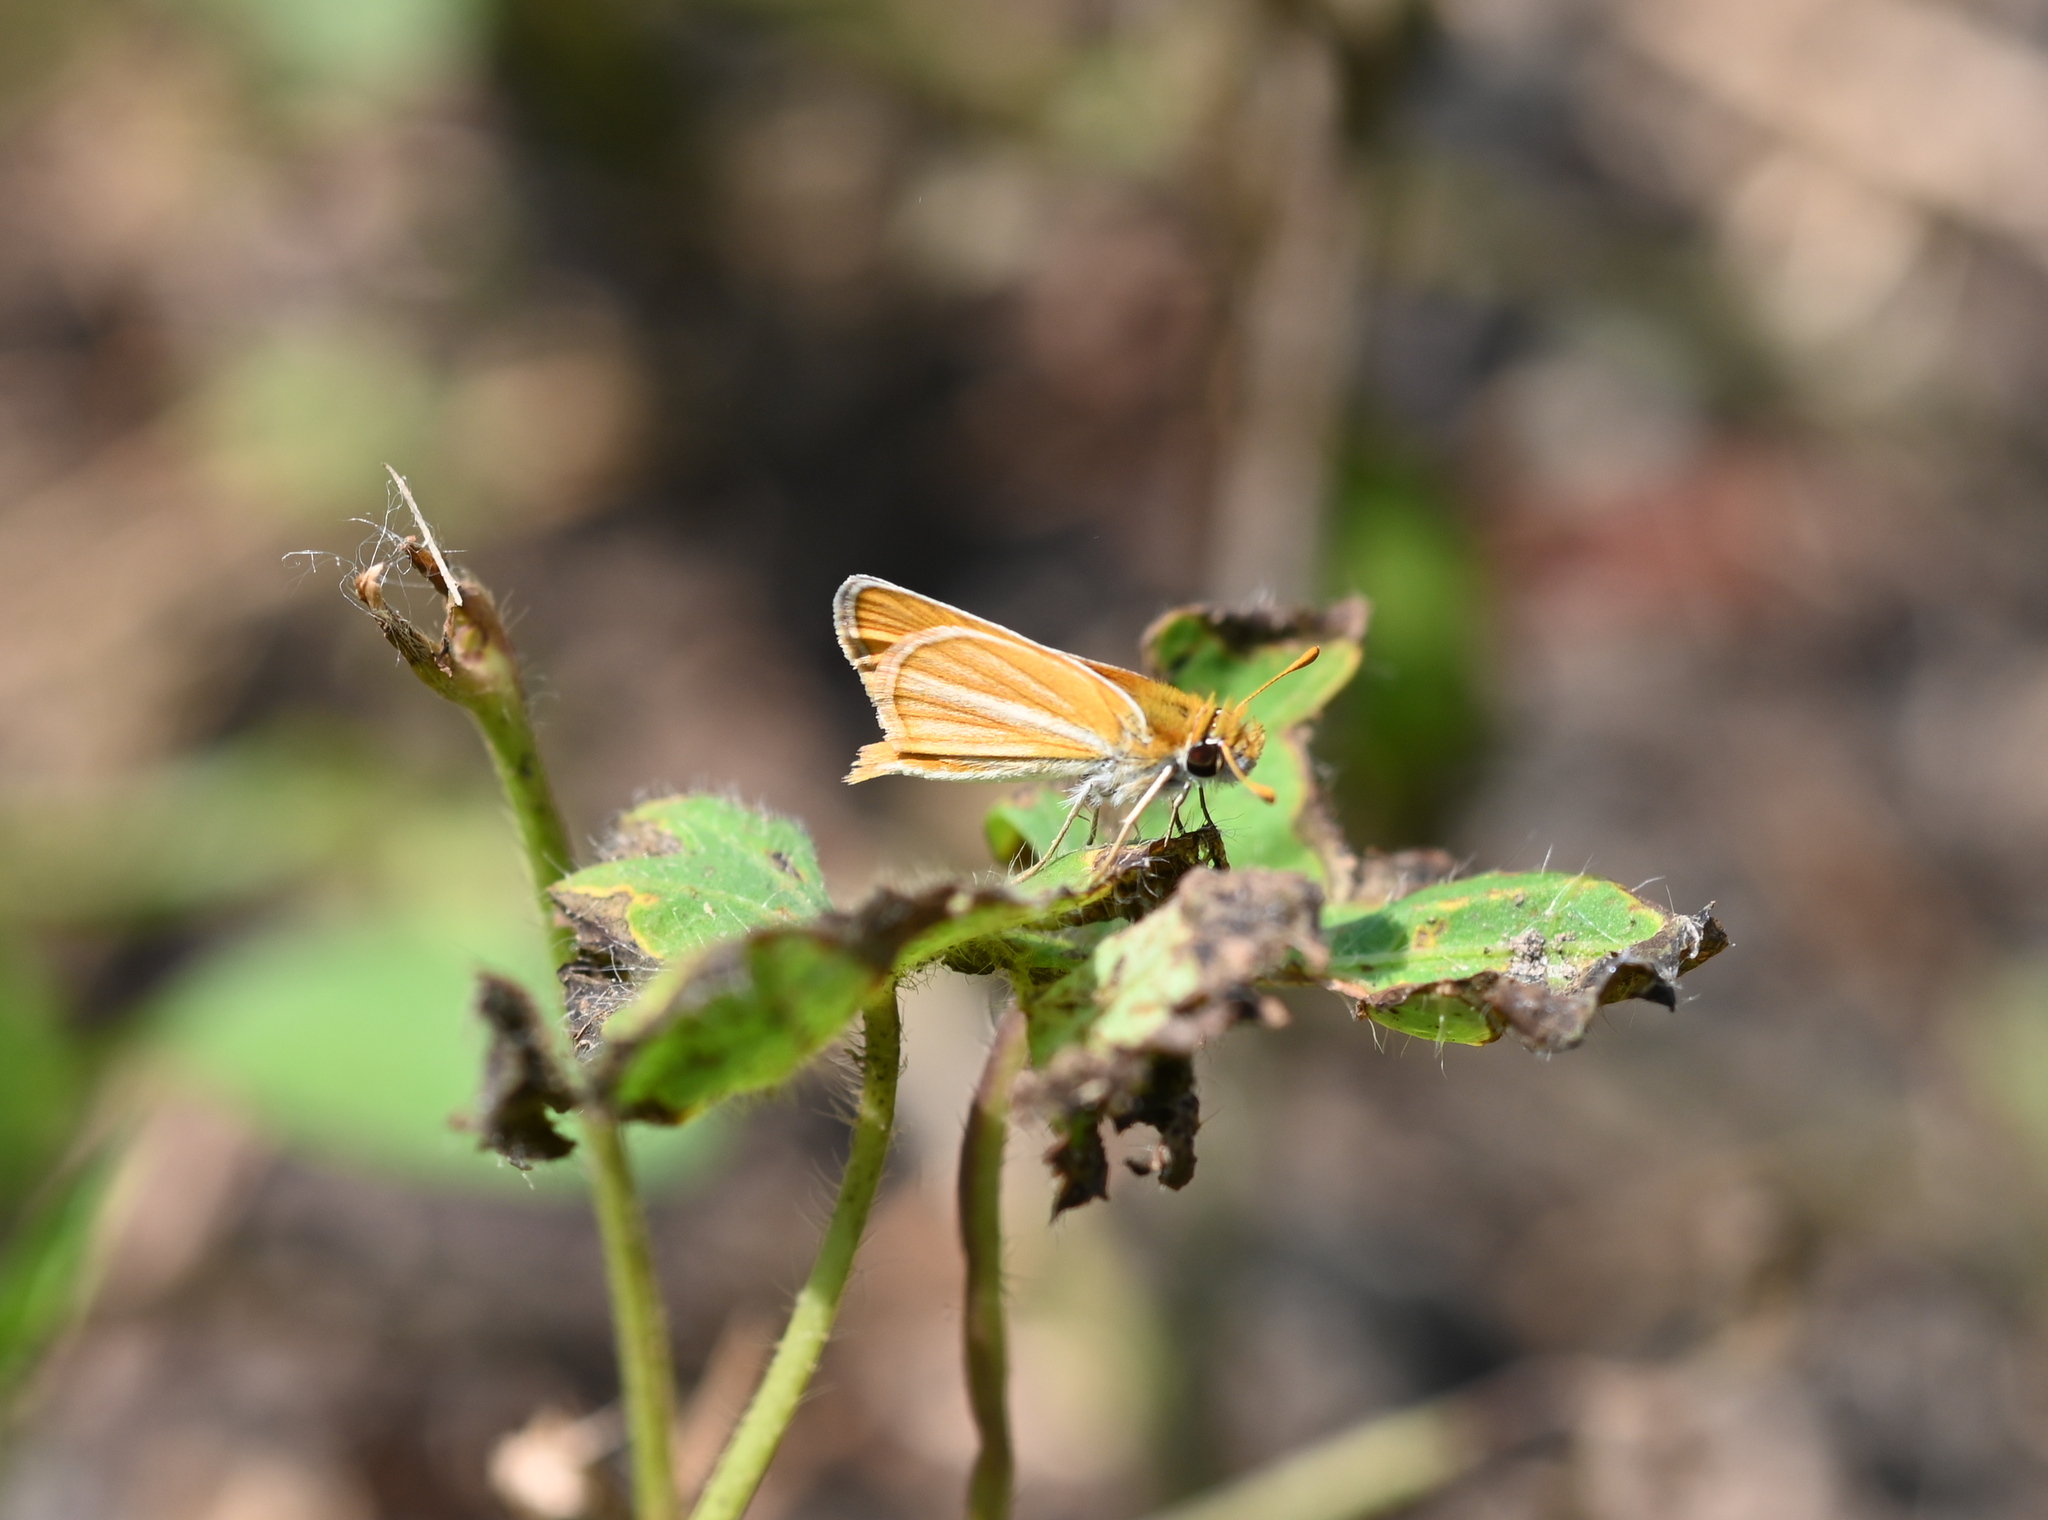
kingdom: Animalia
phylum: Arthropoda
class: Insecta
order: Lepidoptera
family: Hesperiidae
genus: Copaeodes
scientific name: Copaeodes minima
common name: Southern skipperling
